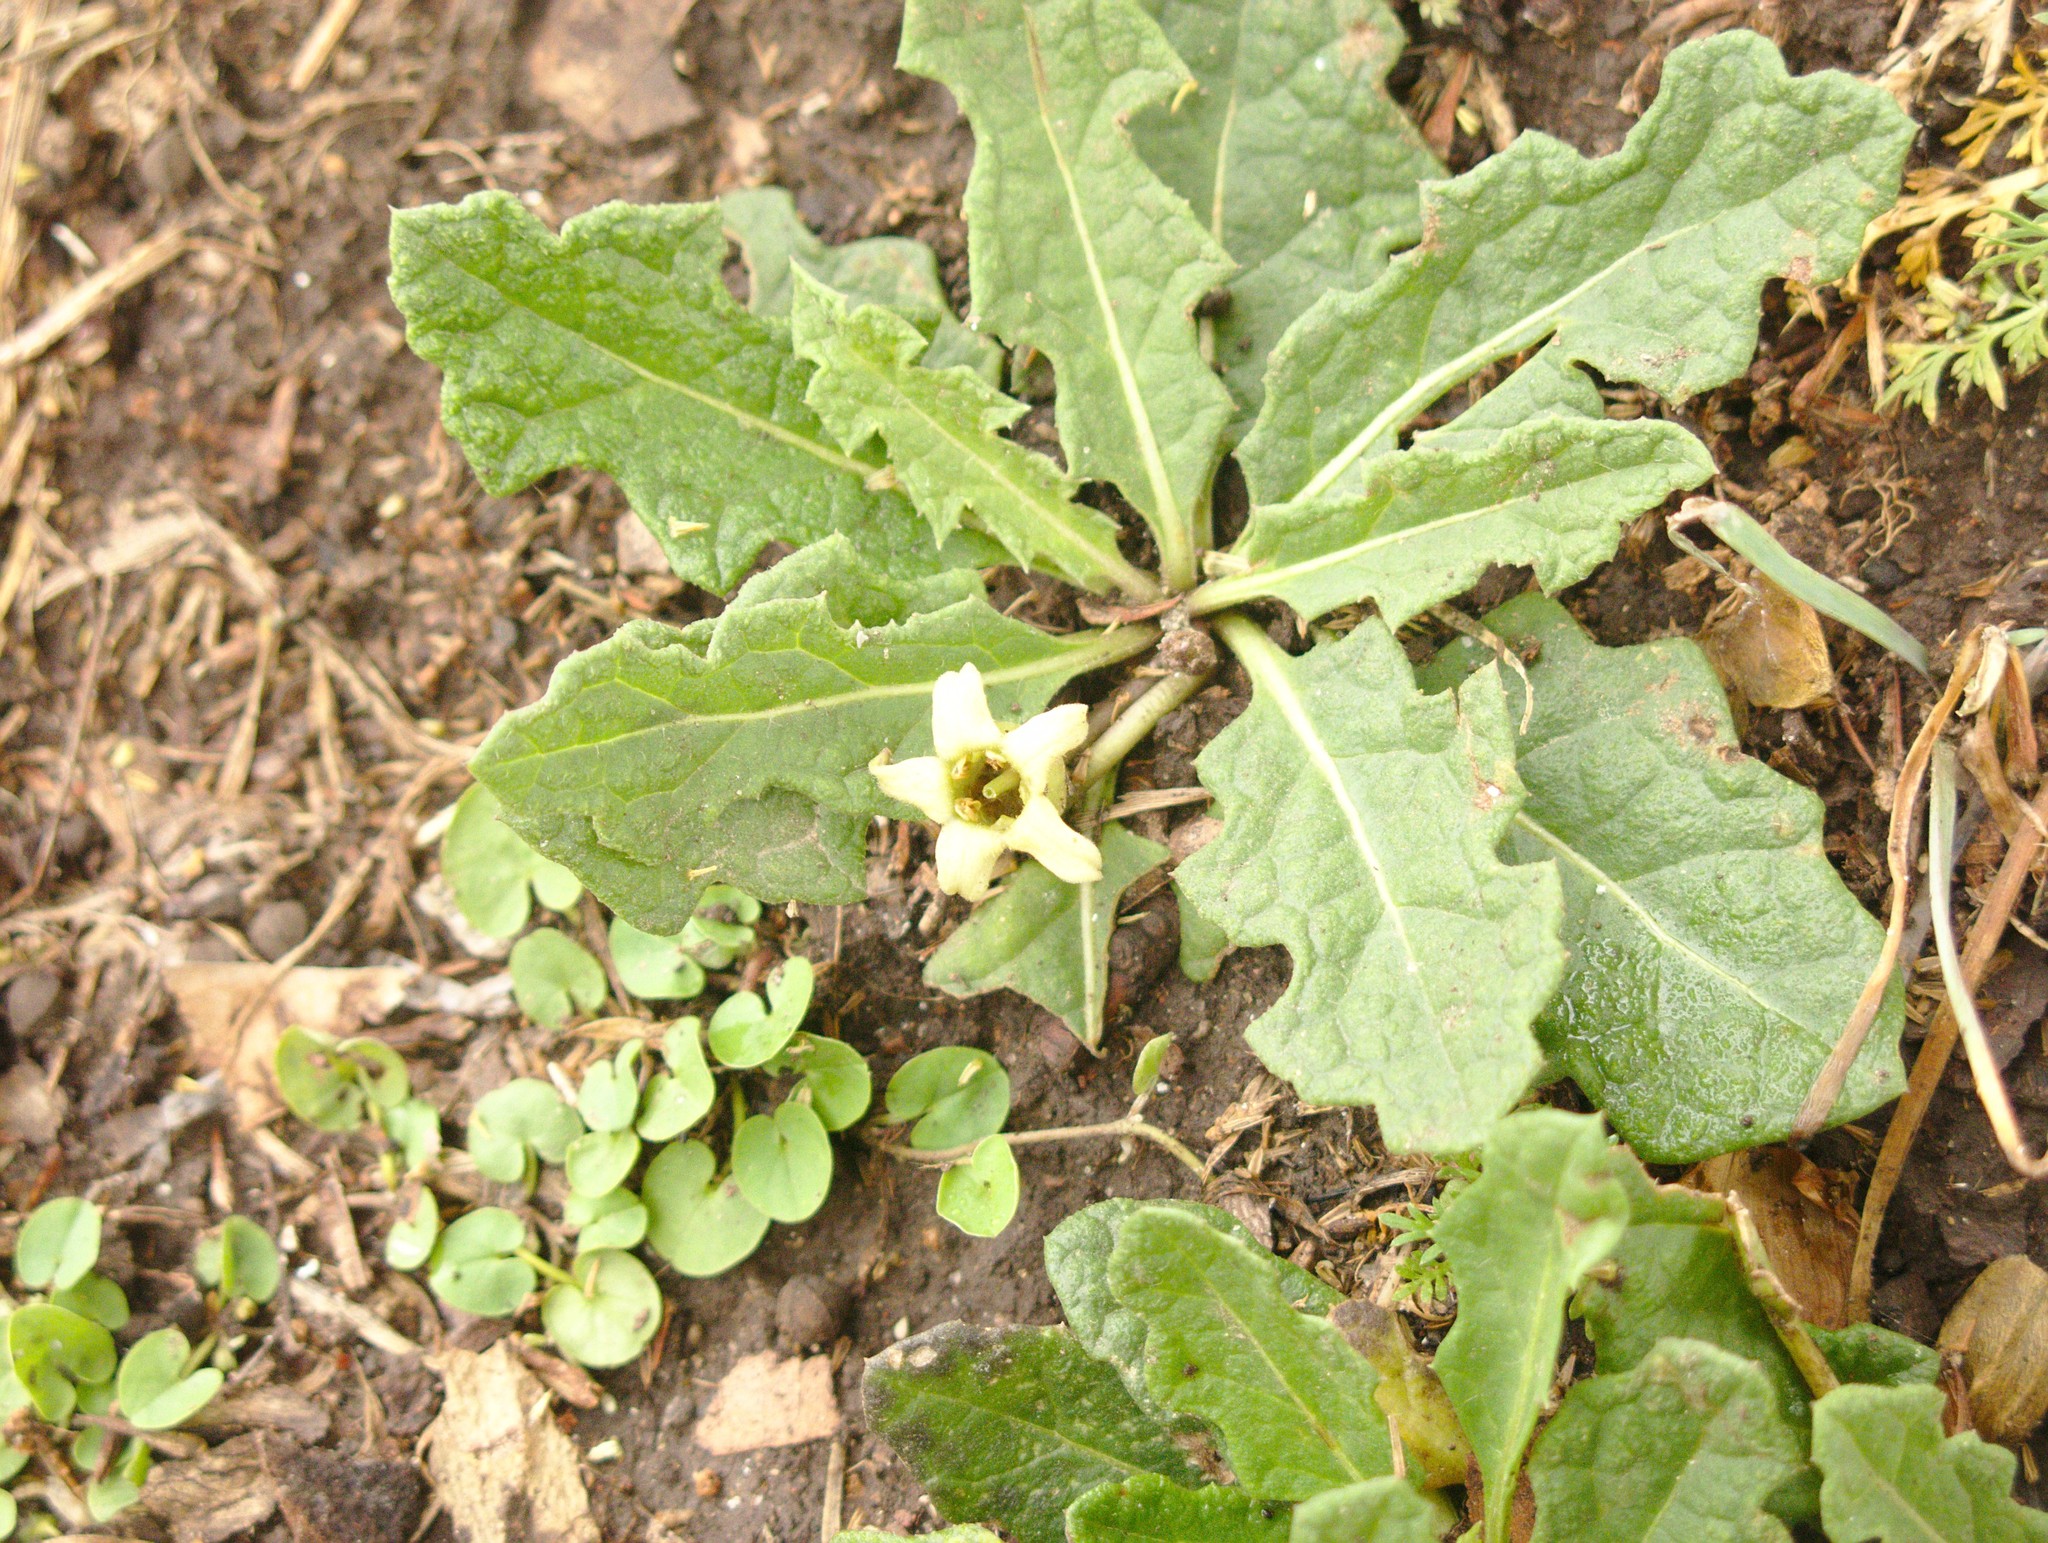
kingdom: Plantae
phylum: Tracheophyta
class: Magnoliopsida
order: Solanales
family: Solanaceae
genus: Jaborosa
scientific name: Jaborosa runcinata
